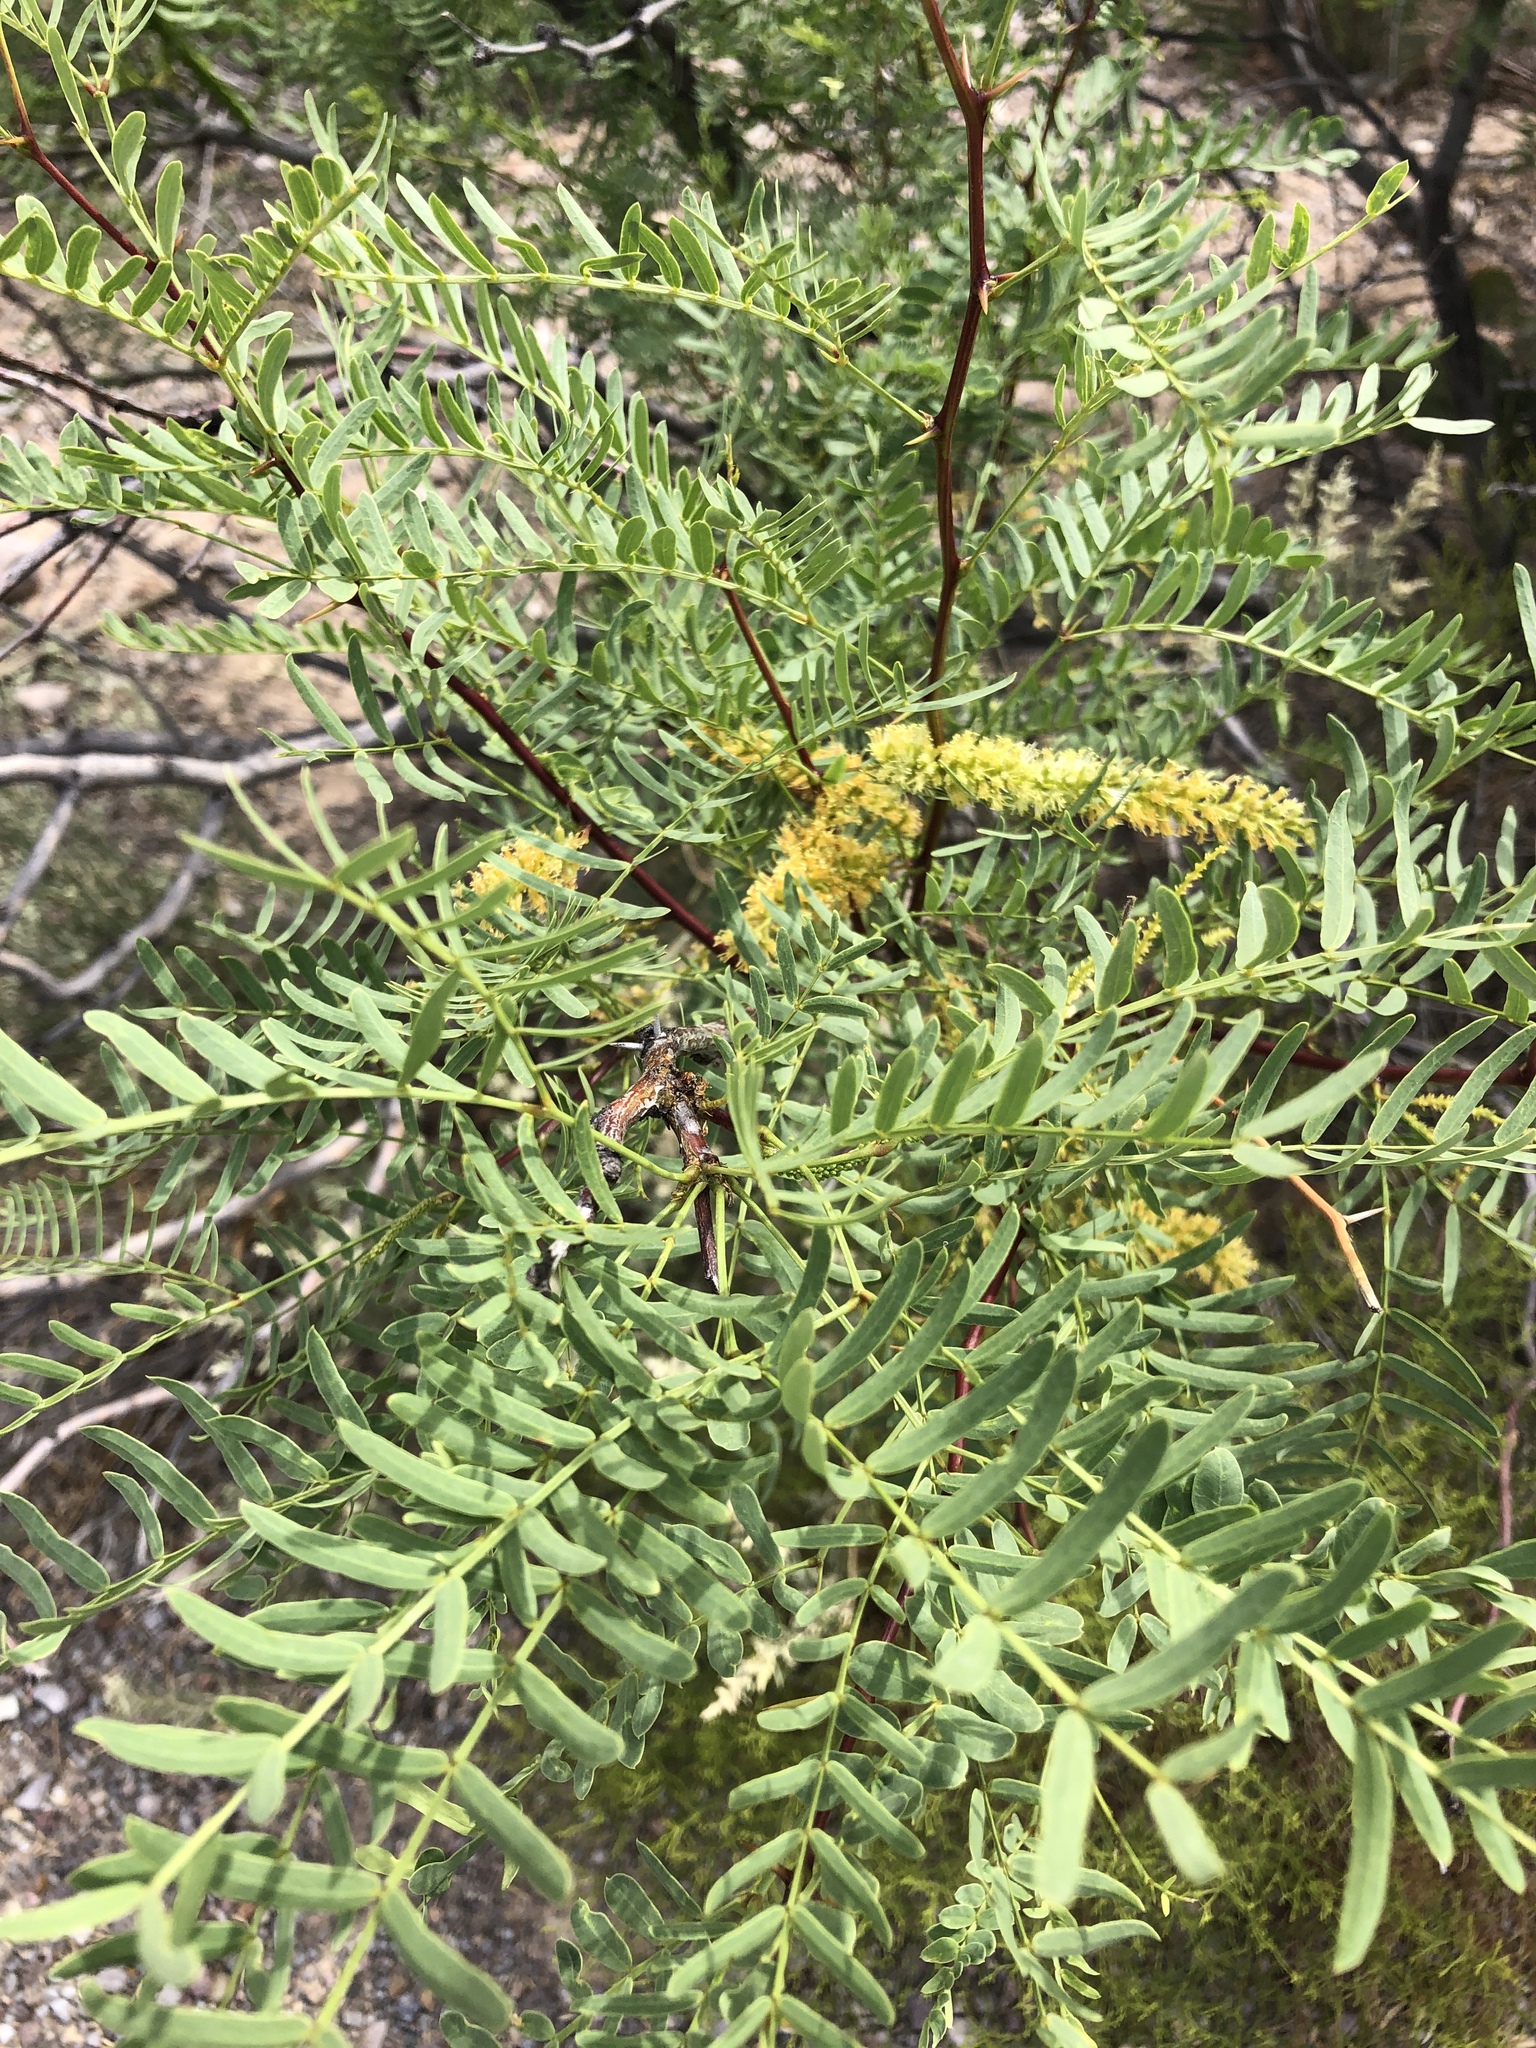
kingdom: Plantae
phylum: Tracheophyta
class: Magnoliopsida
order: Fabales
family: Fabaceae
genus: Prosopis
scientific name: Prosopis glandulosa
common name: Honey mesquite
